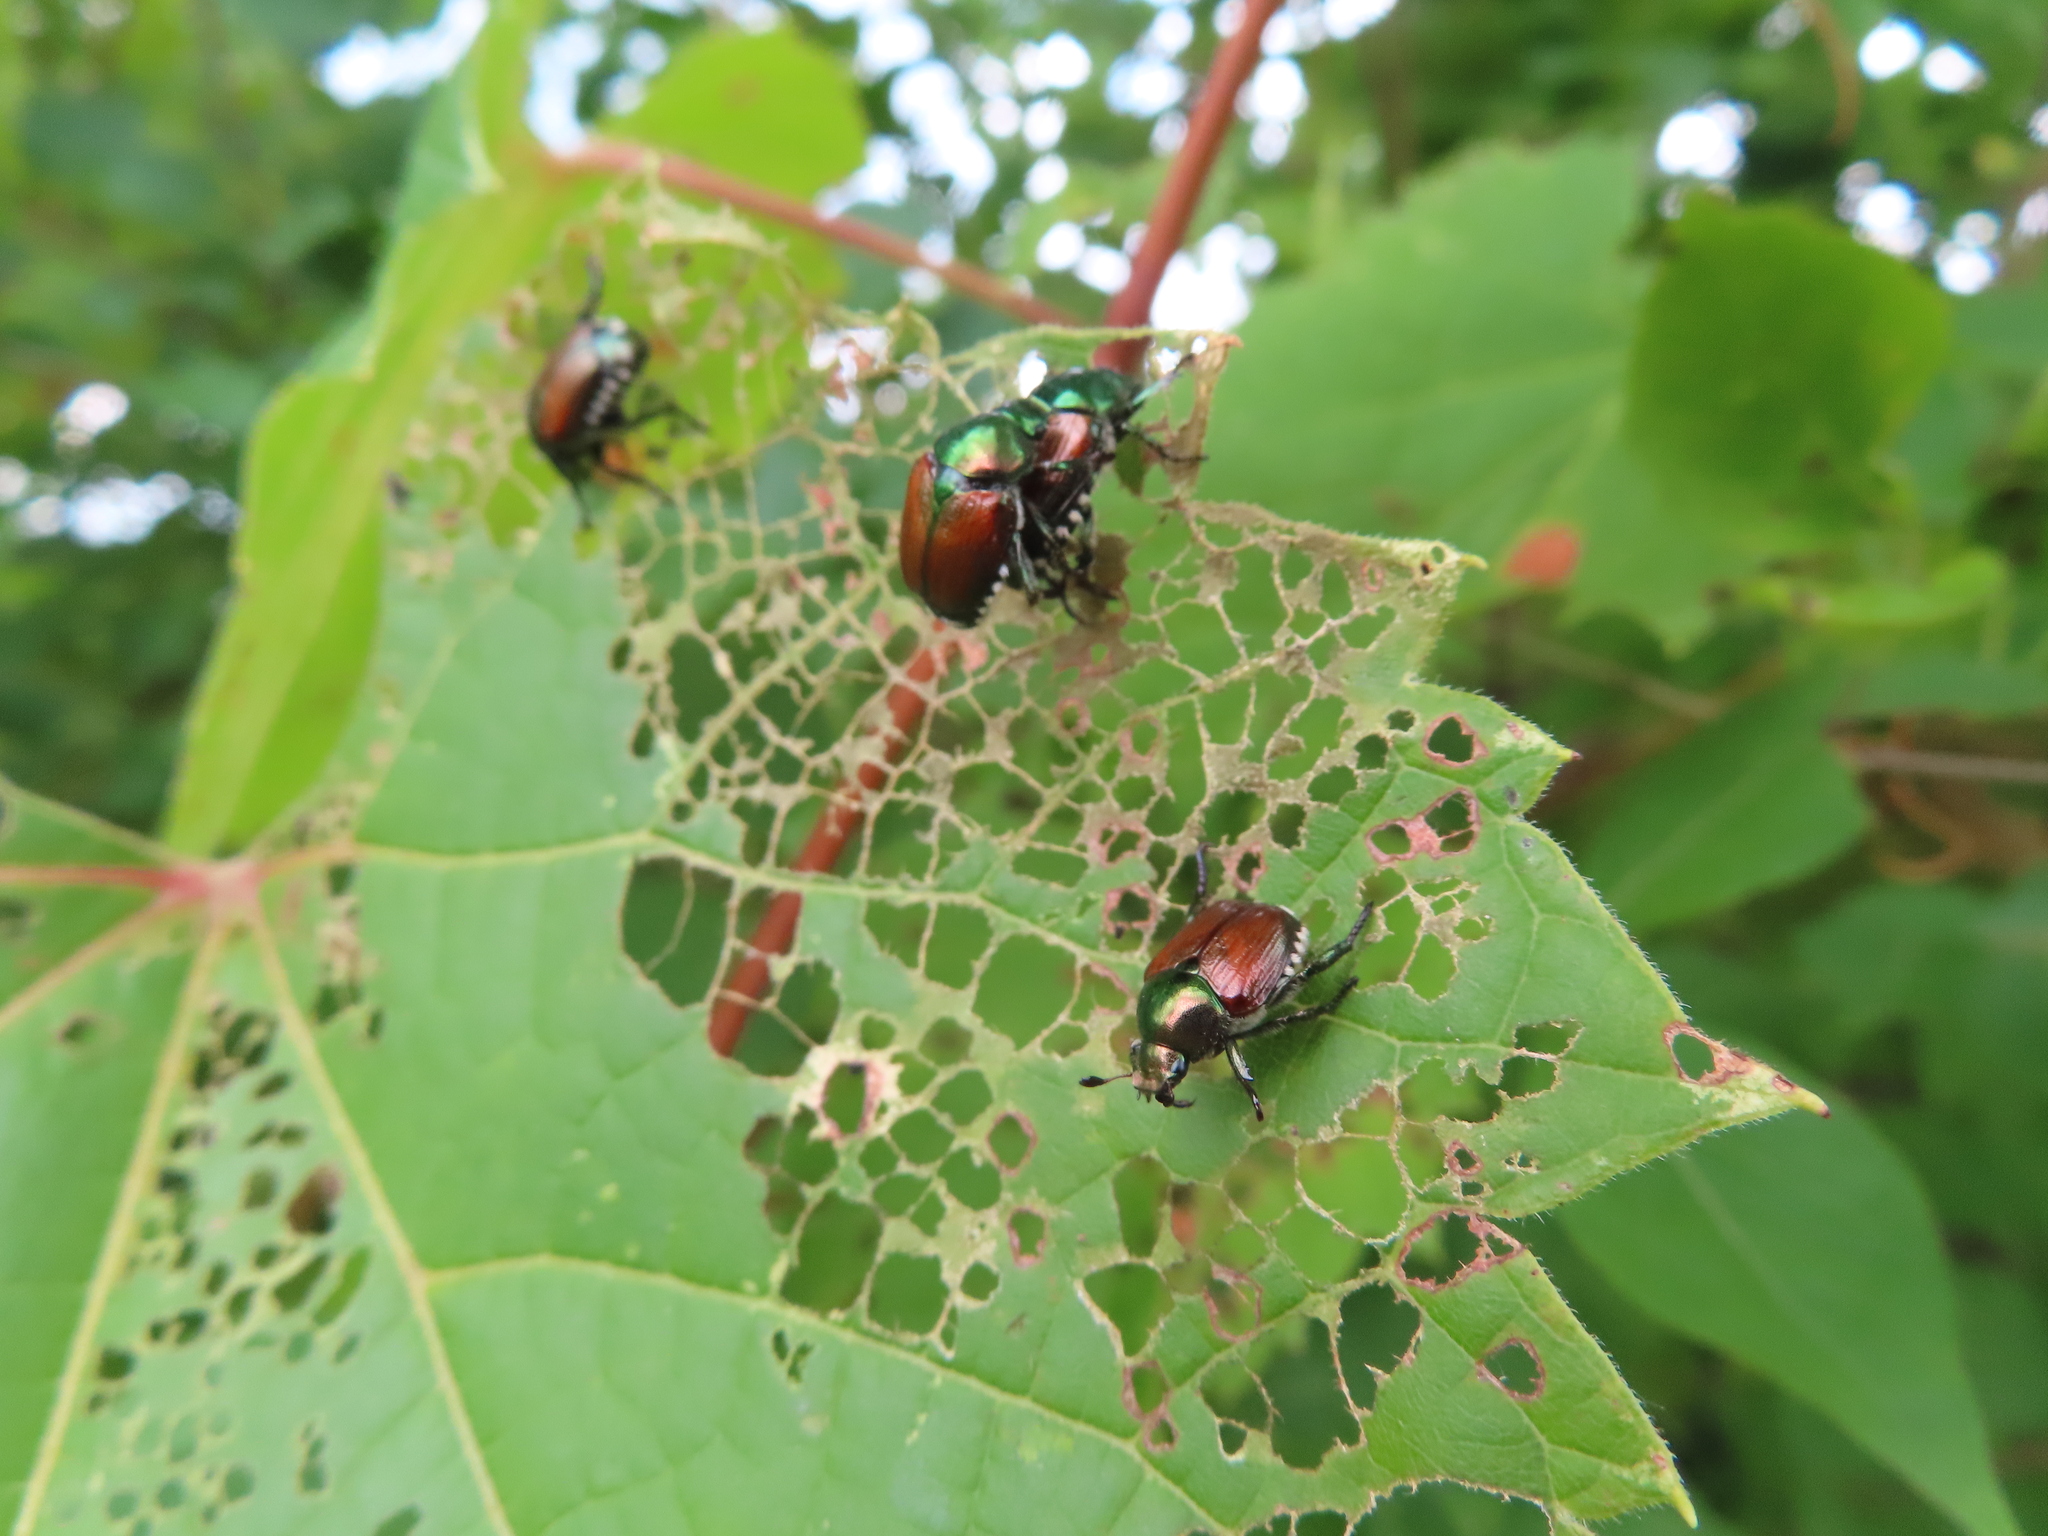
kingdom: Animalia
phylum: Arthropoda
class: Insecta
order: Coleoptera
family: Scarabaeidae
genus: Popillia
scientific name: Popillia japonica
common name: Japanese beetle
